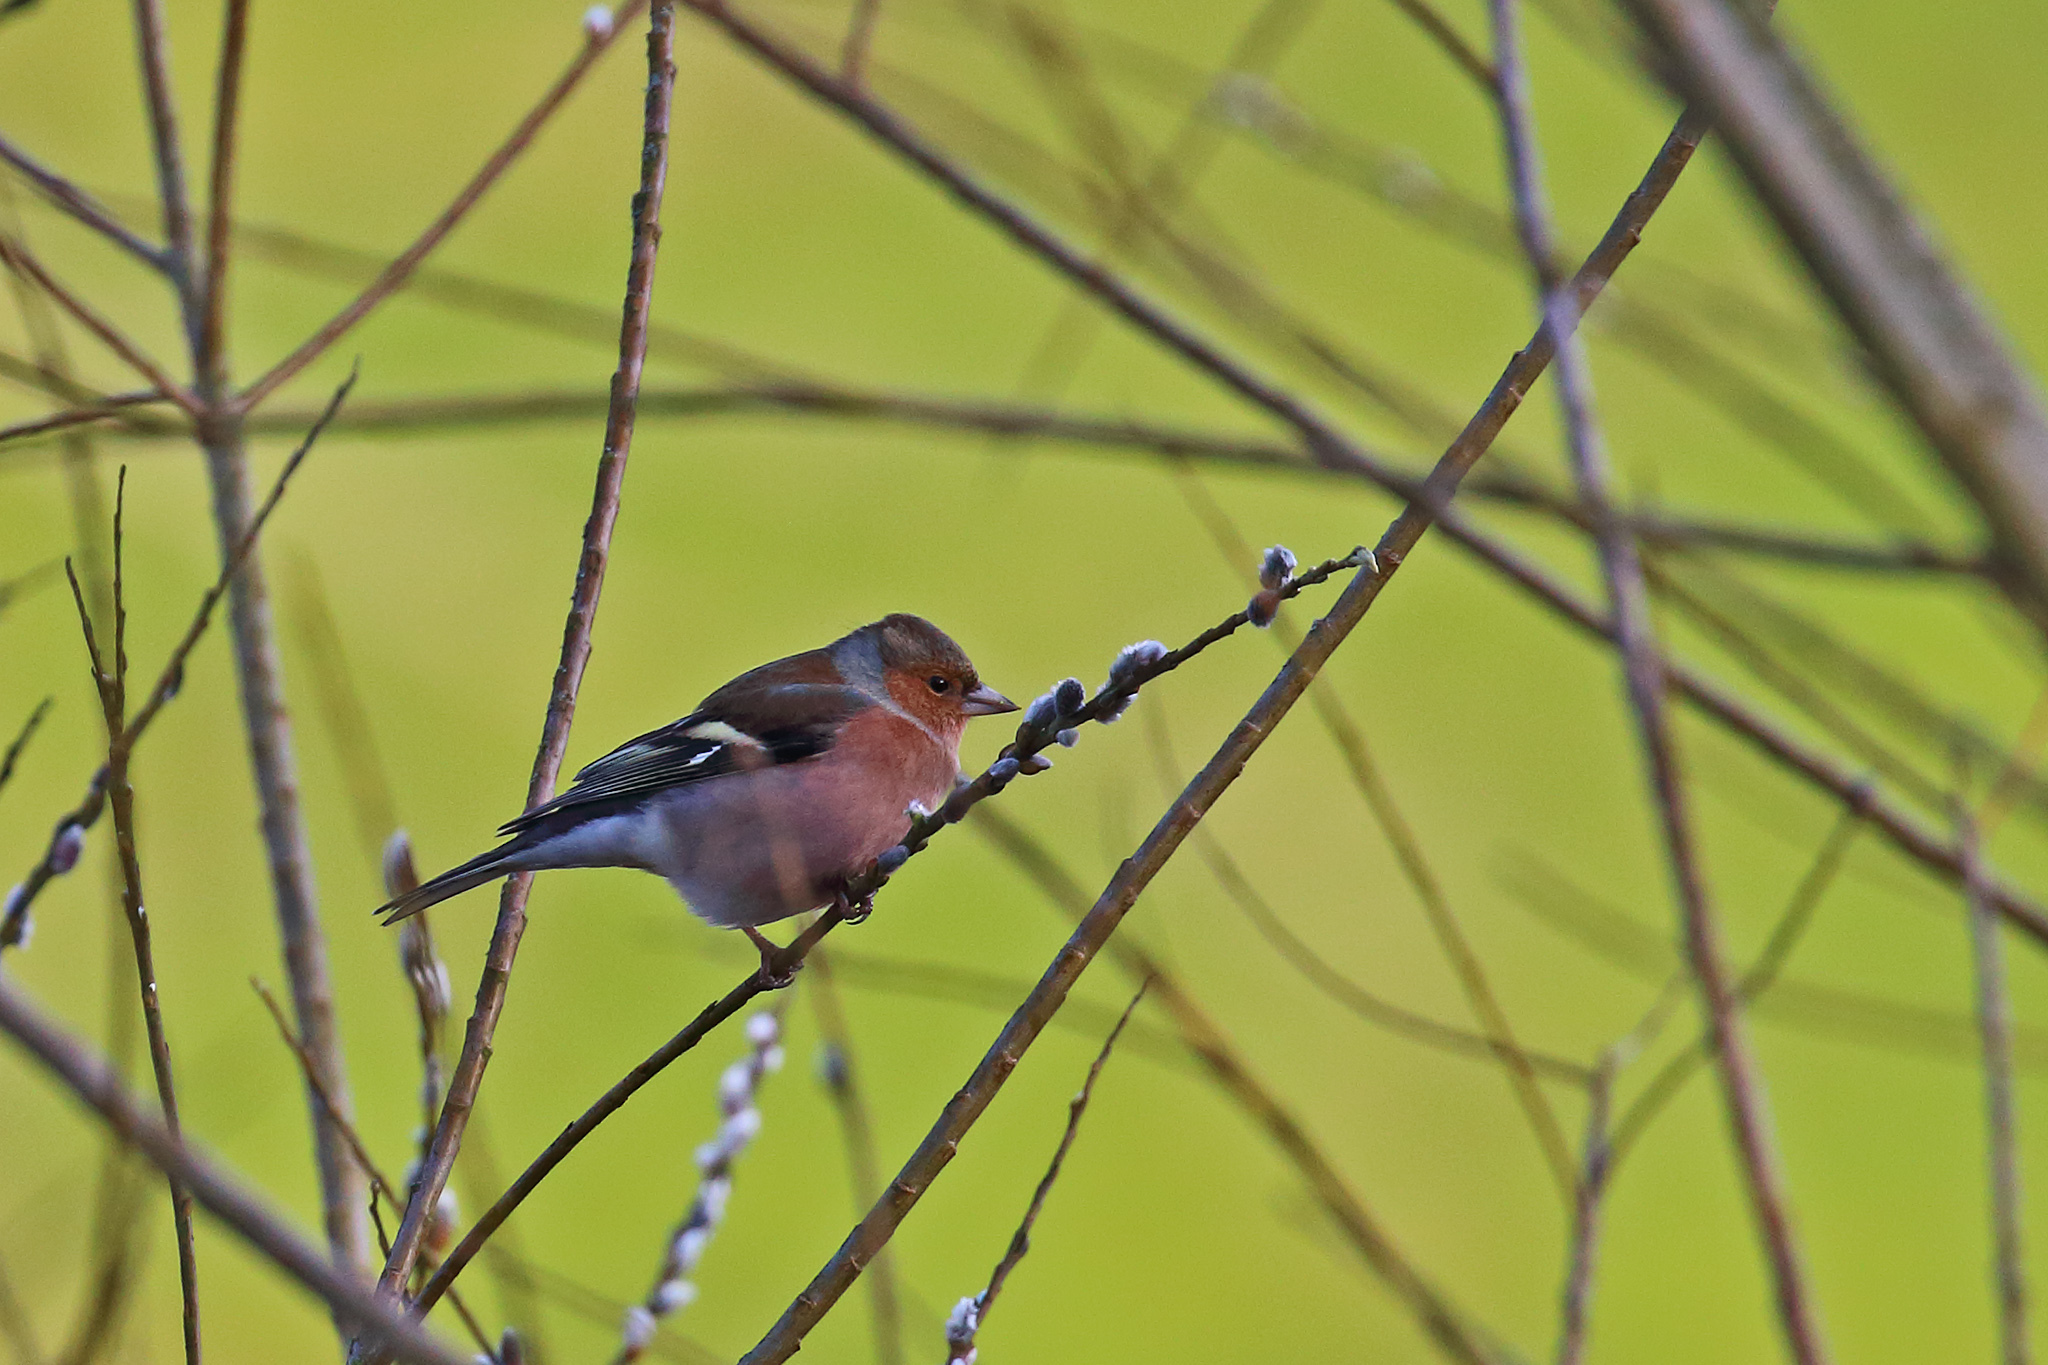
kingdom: Animalia
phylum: Chordata
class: Aves
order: Passeriformes
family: Fringillidae
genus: Fringilla
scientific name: Fringilla coelebs
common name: Common chaffinch
